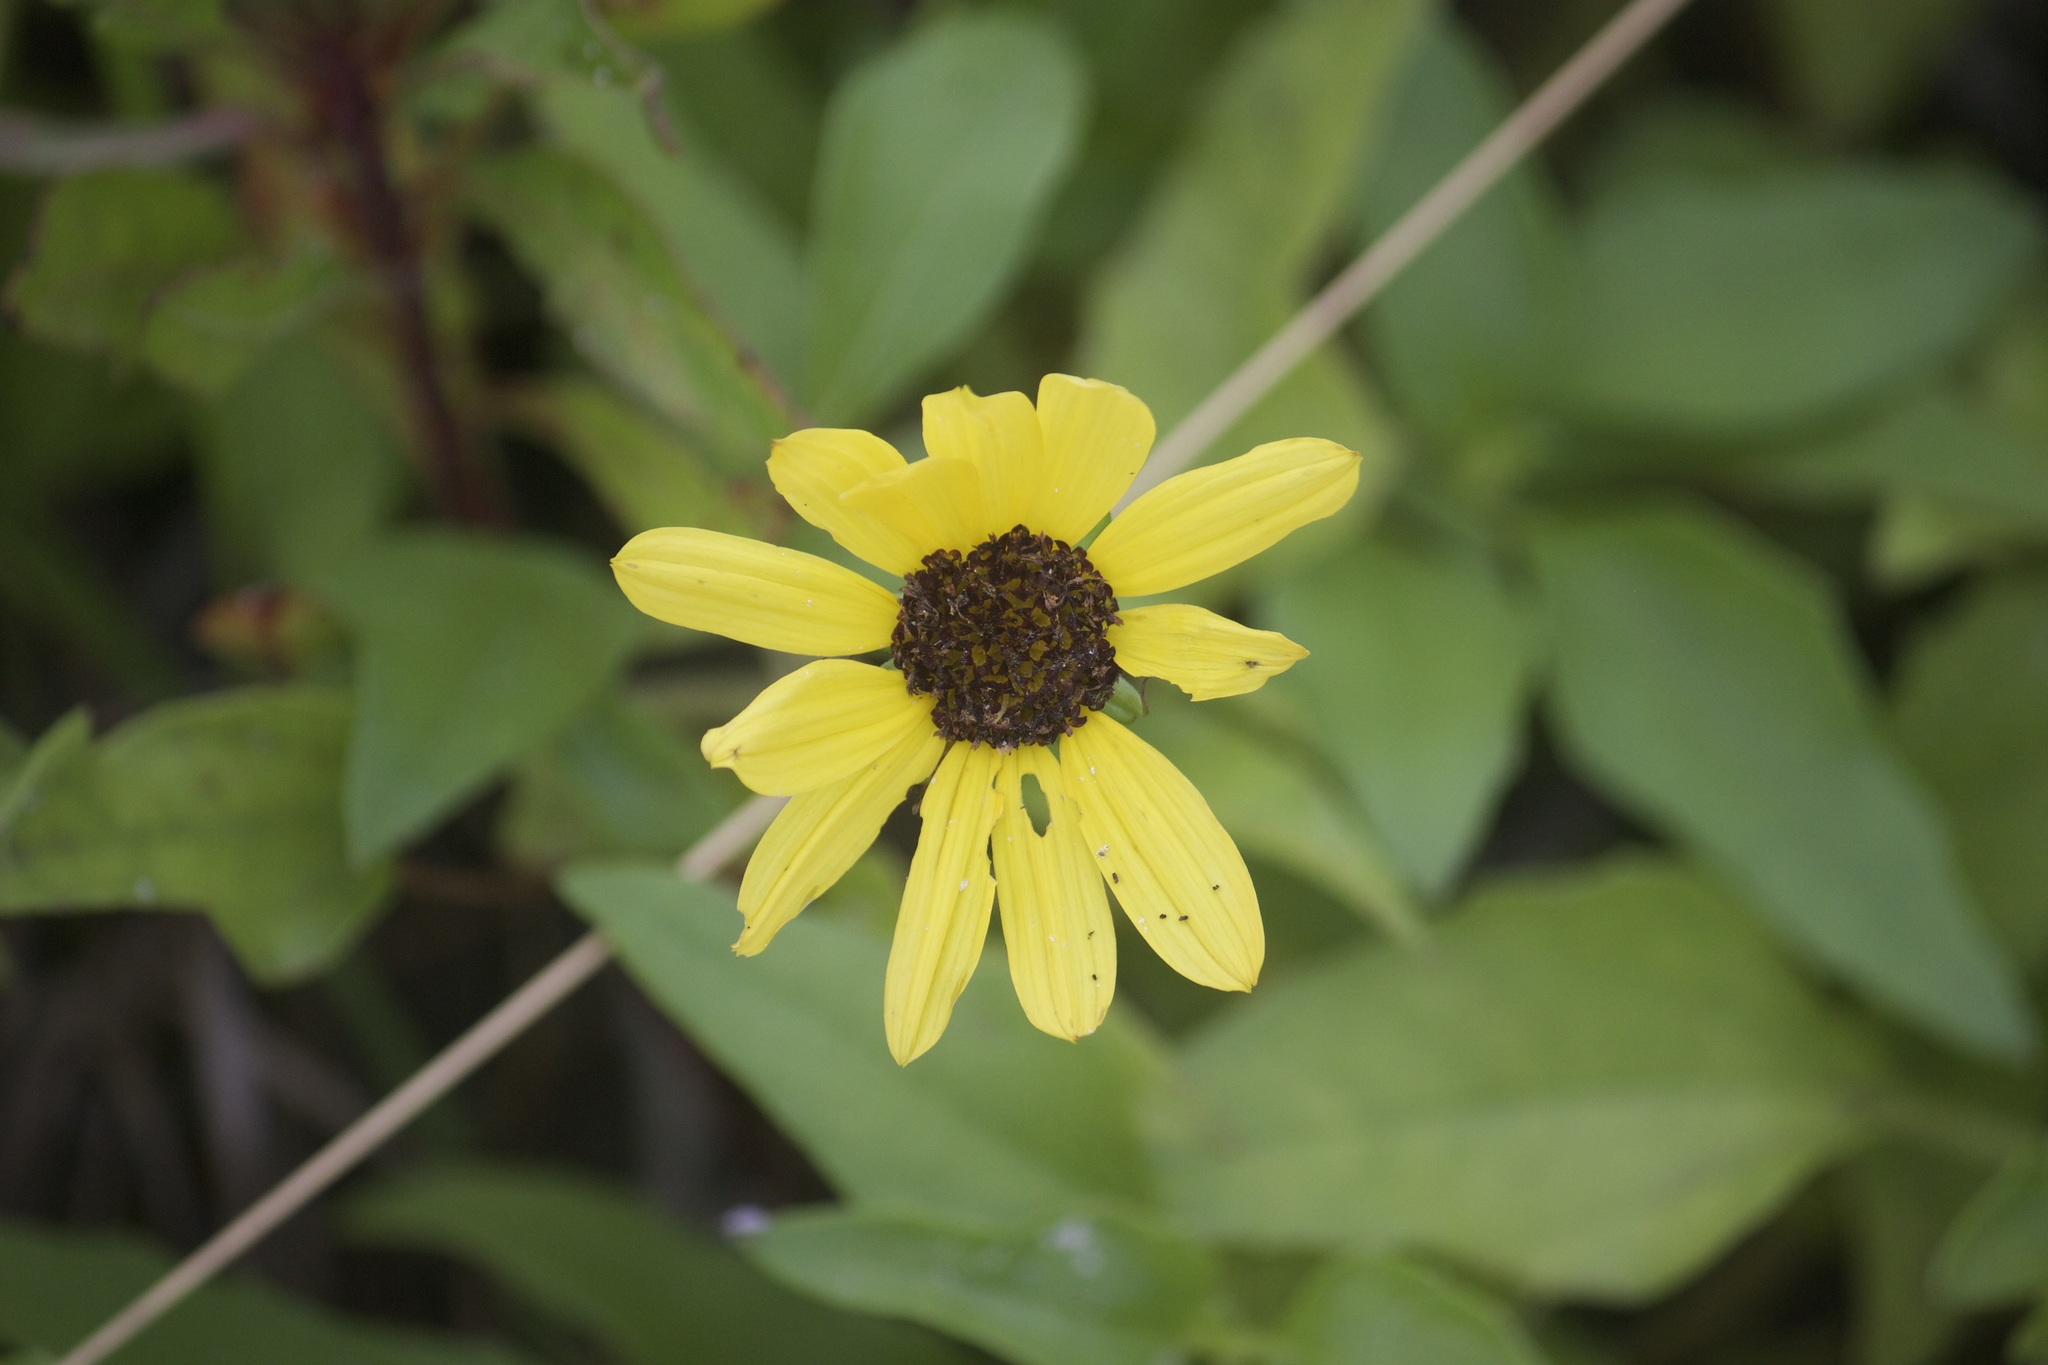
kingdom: Plantae
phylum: Tracheophyta
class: Magnoliopsida
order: Asterales
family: Asteraceae
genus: Helianthus
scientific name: Helianthus debilis
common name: Weak sunflower
